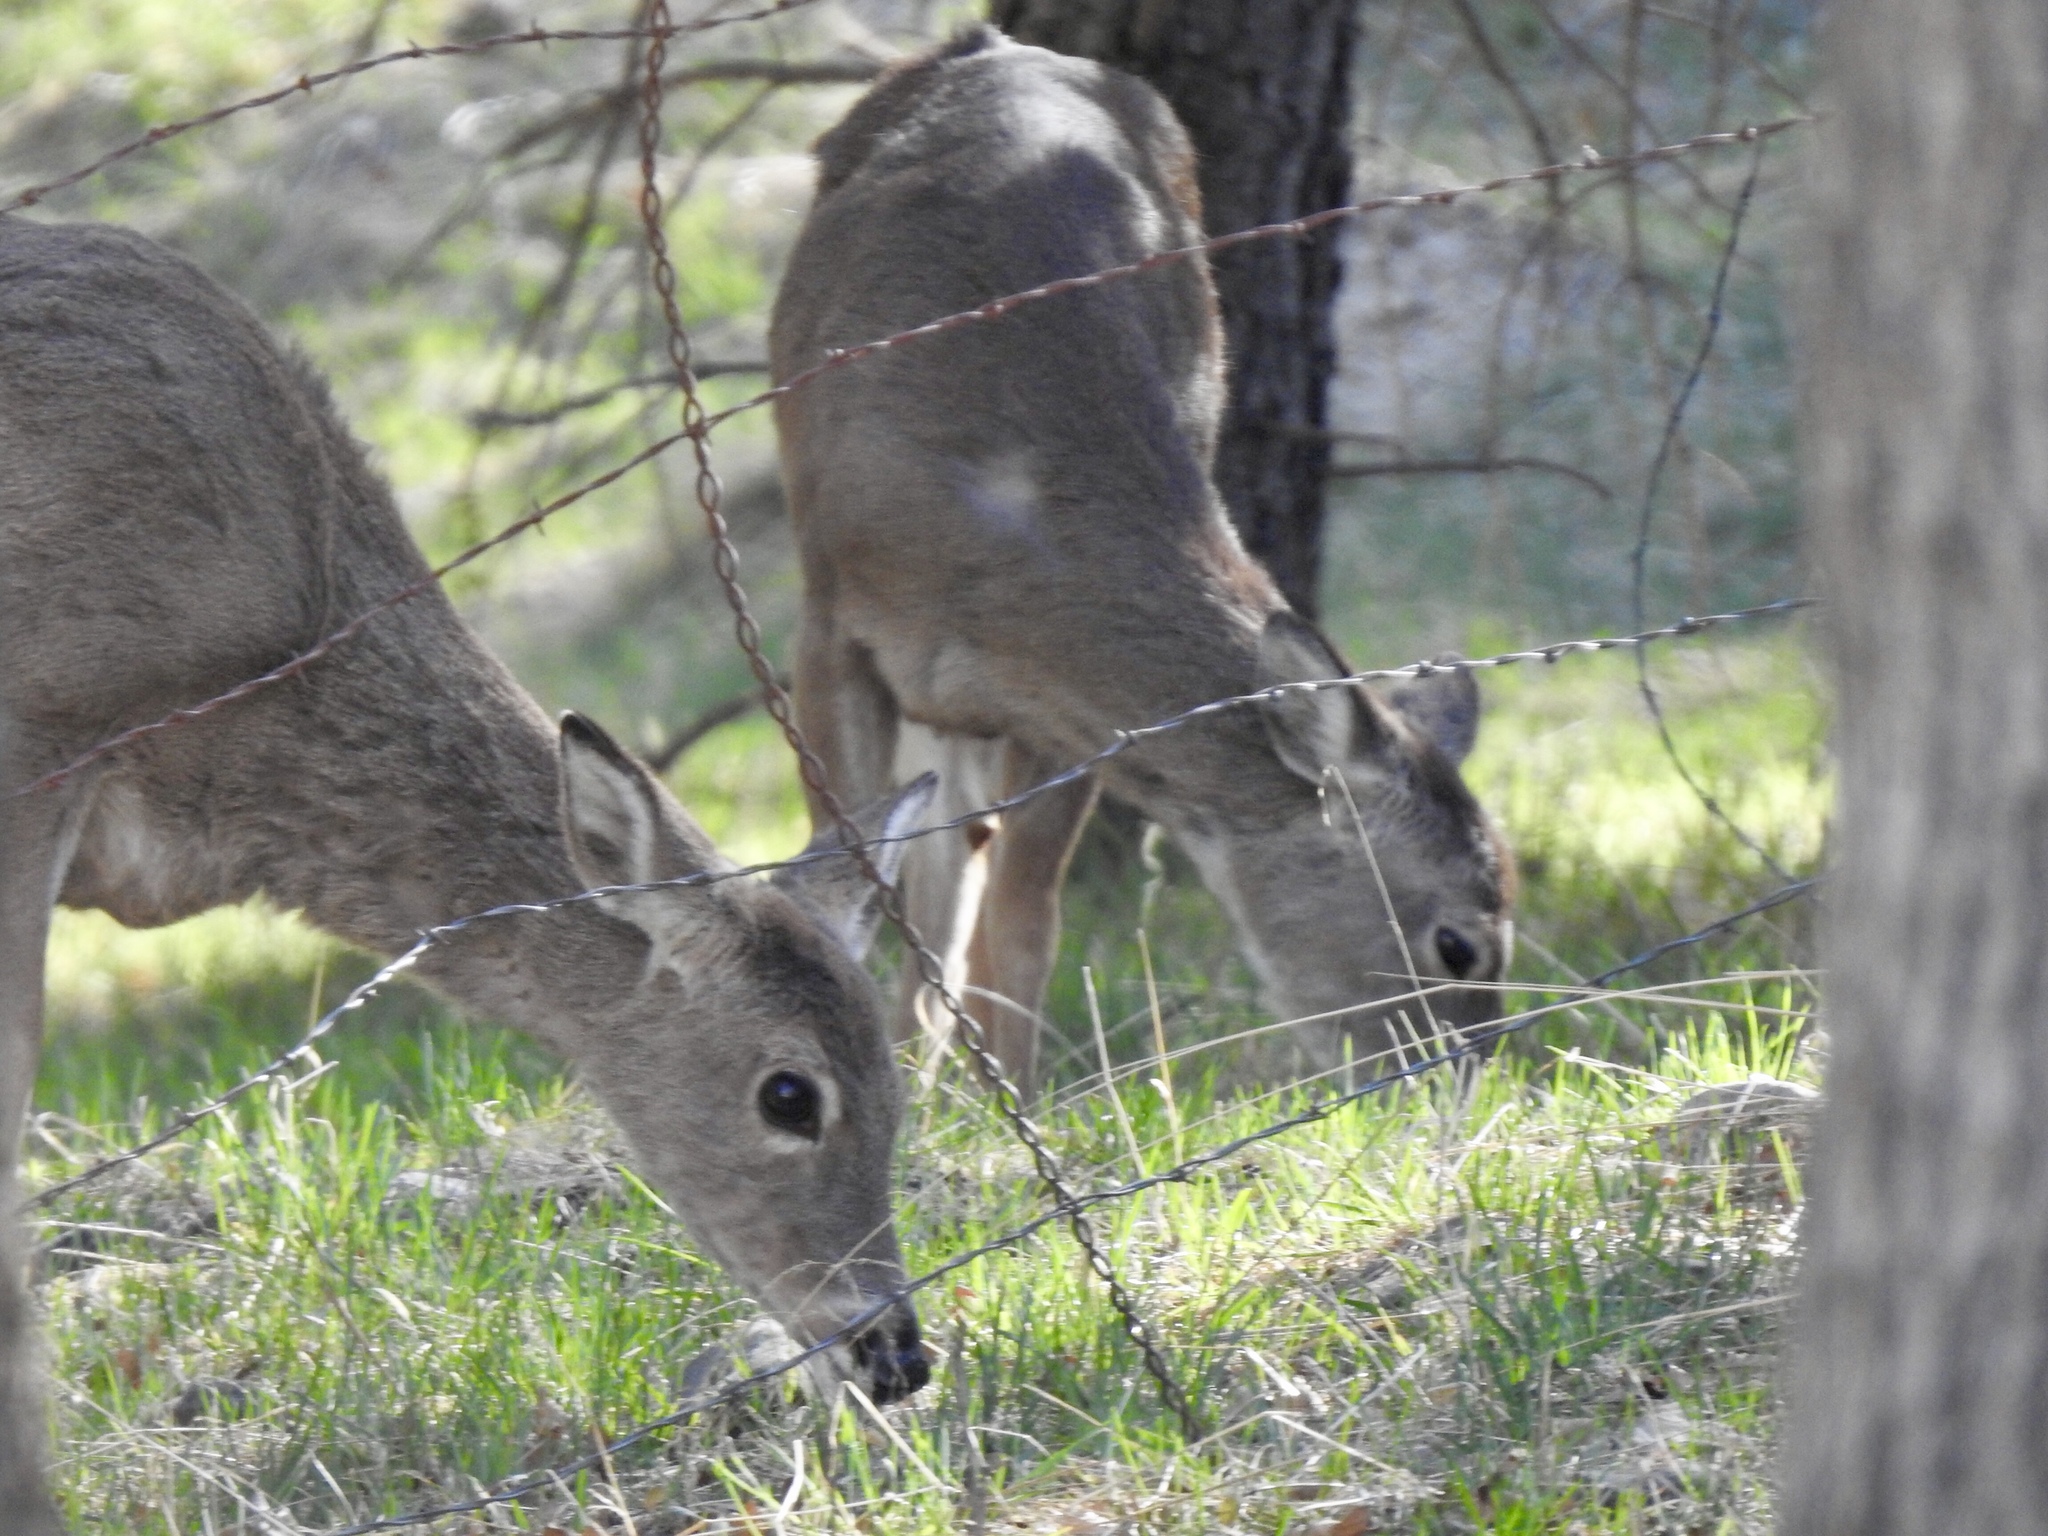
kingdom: Animalia
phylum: Chordata
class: Mammalia
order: Artiodactyla
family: Cervidae
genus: Odocoileus
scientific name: Odocoileus virginianus
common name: White-tailed deer
